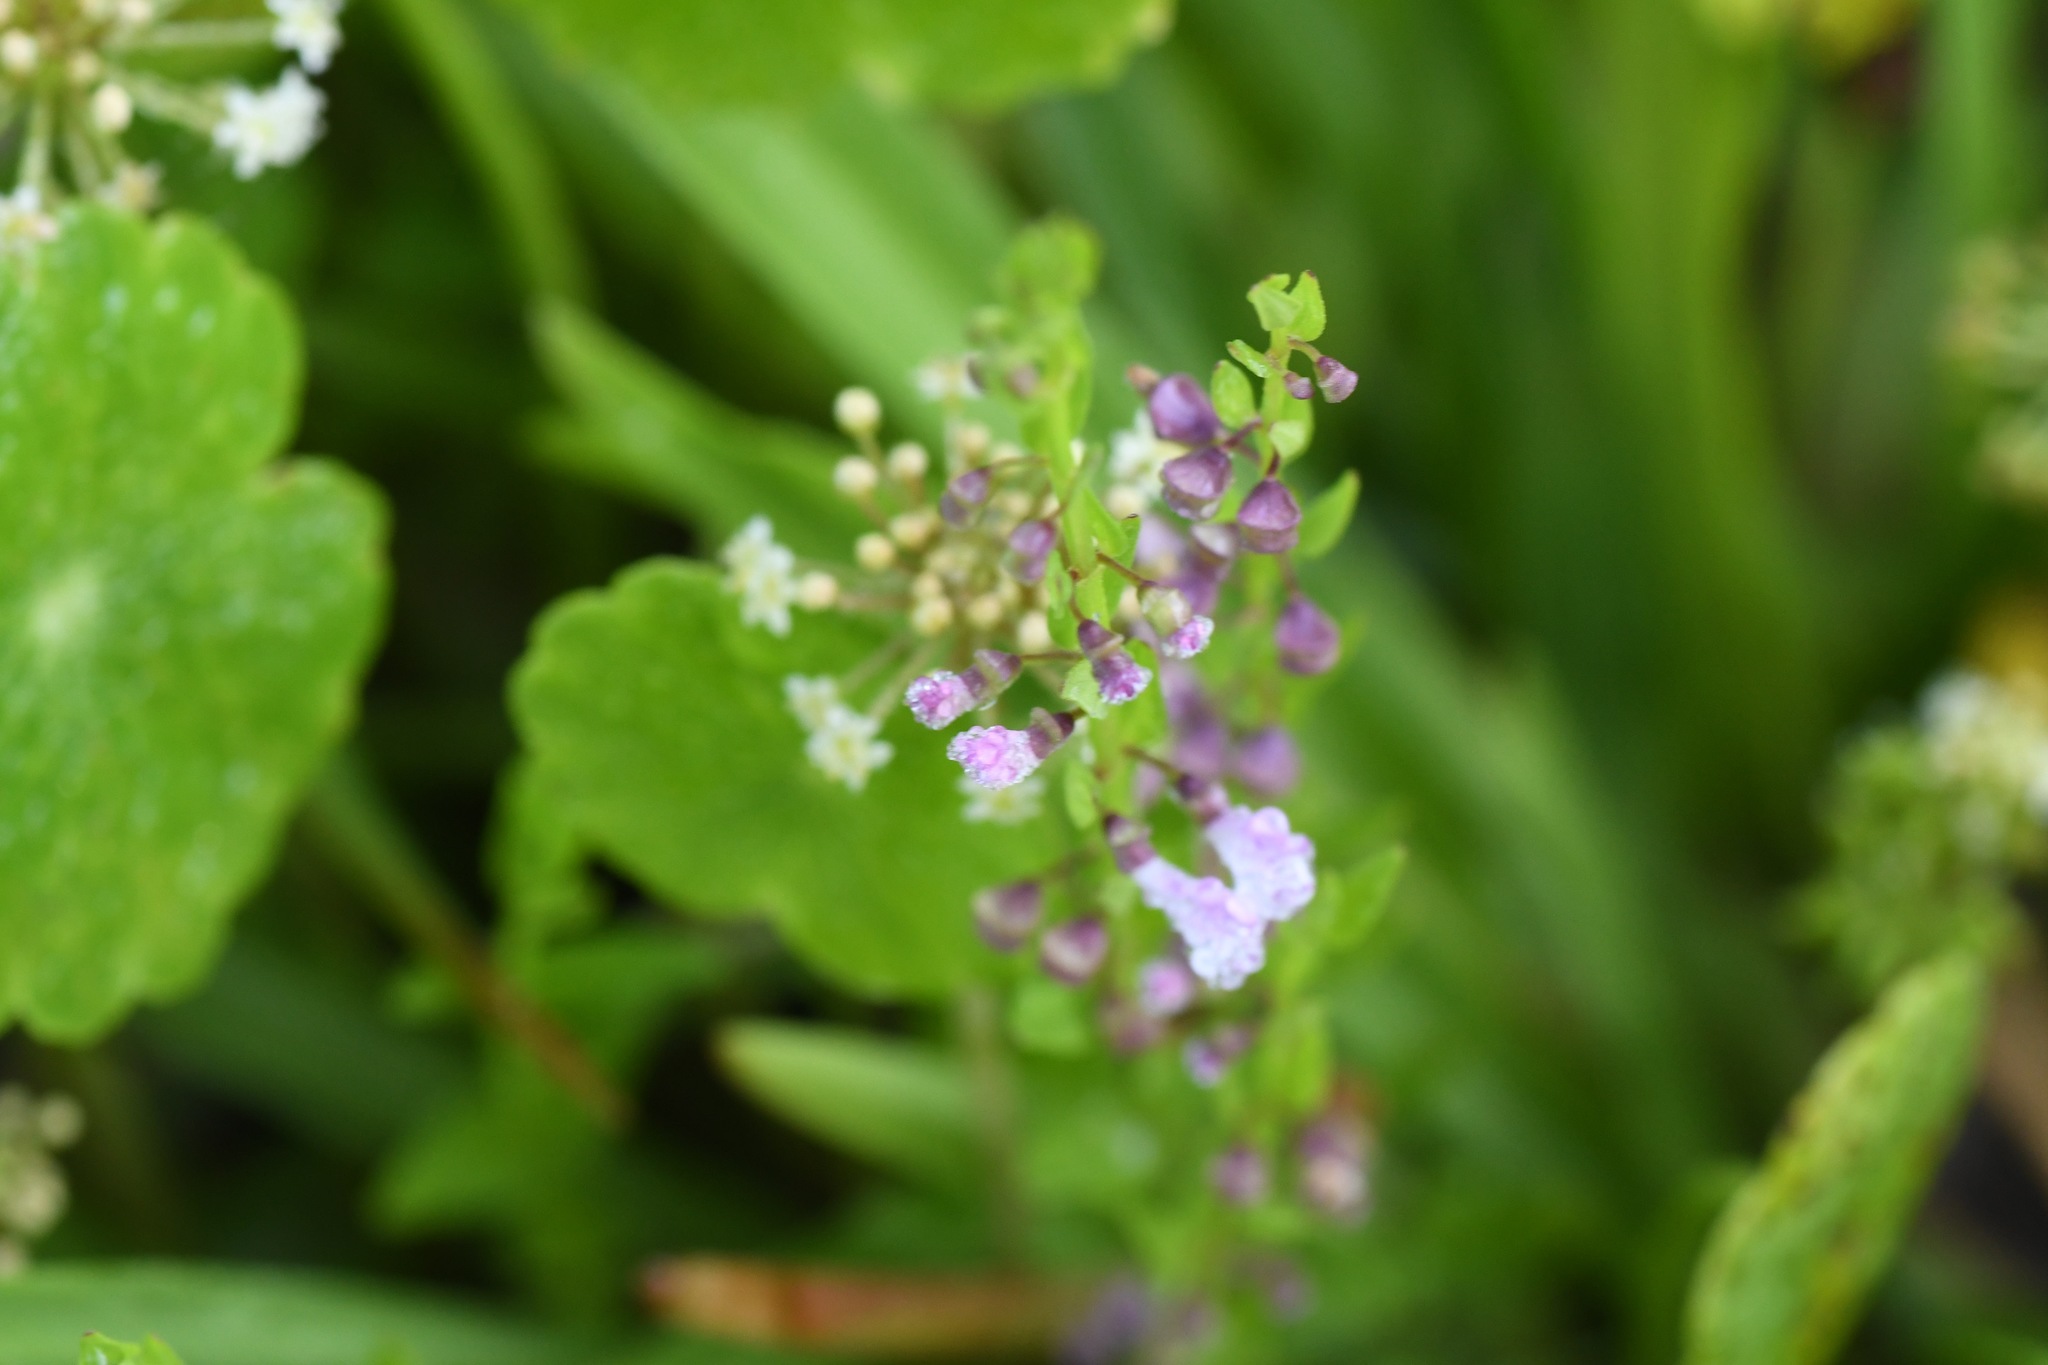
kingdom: Plantae
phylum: Tracheophyta
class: Magnoliopsida
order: Lamiales
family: Lamiaceae
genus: Scutellaria
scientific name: Scutellaria racemosa
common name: South american skullcap
